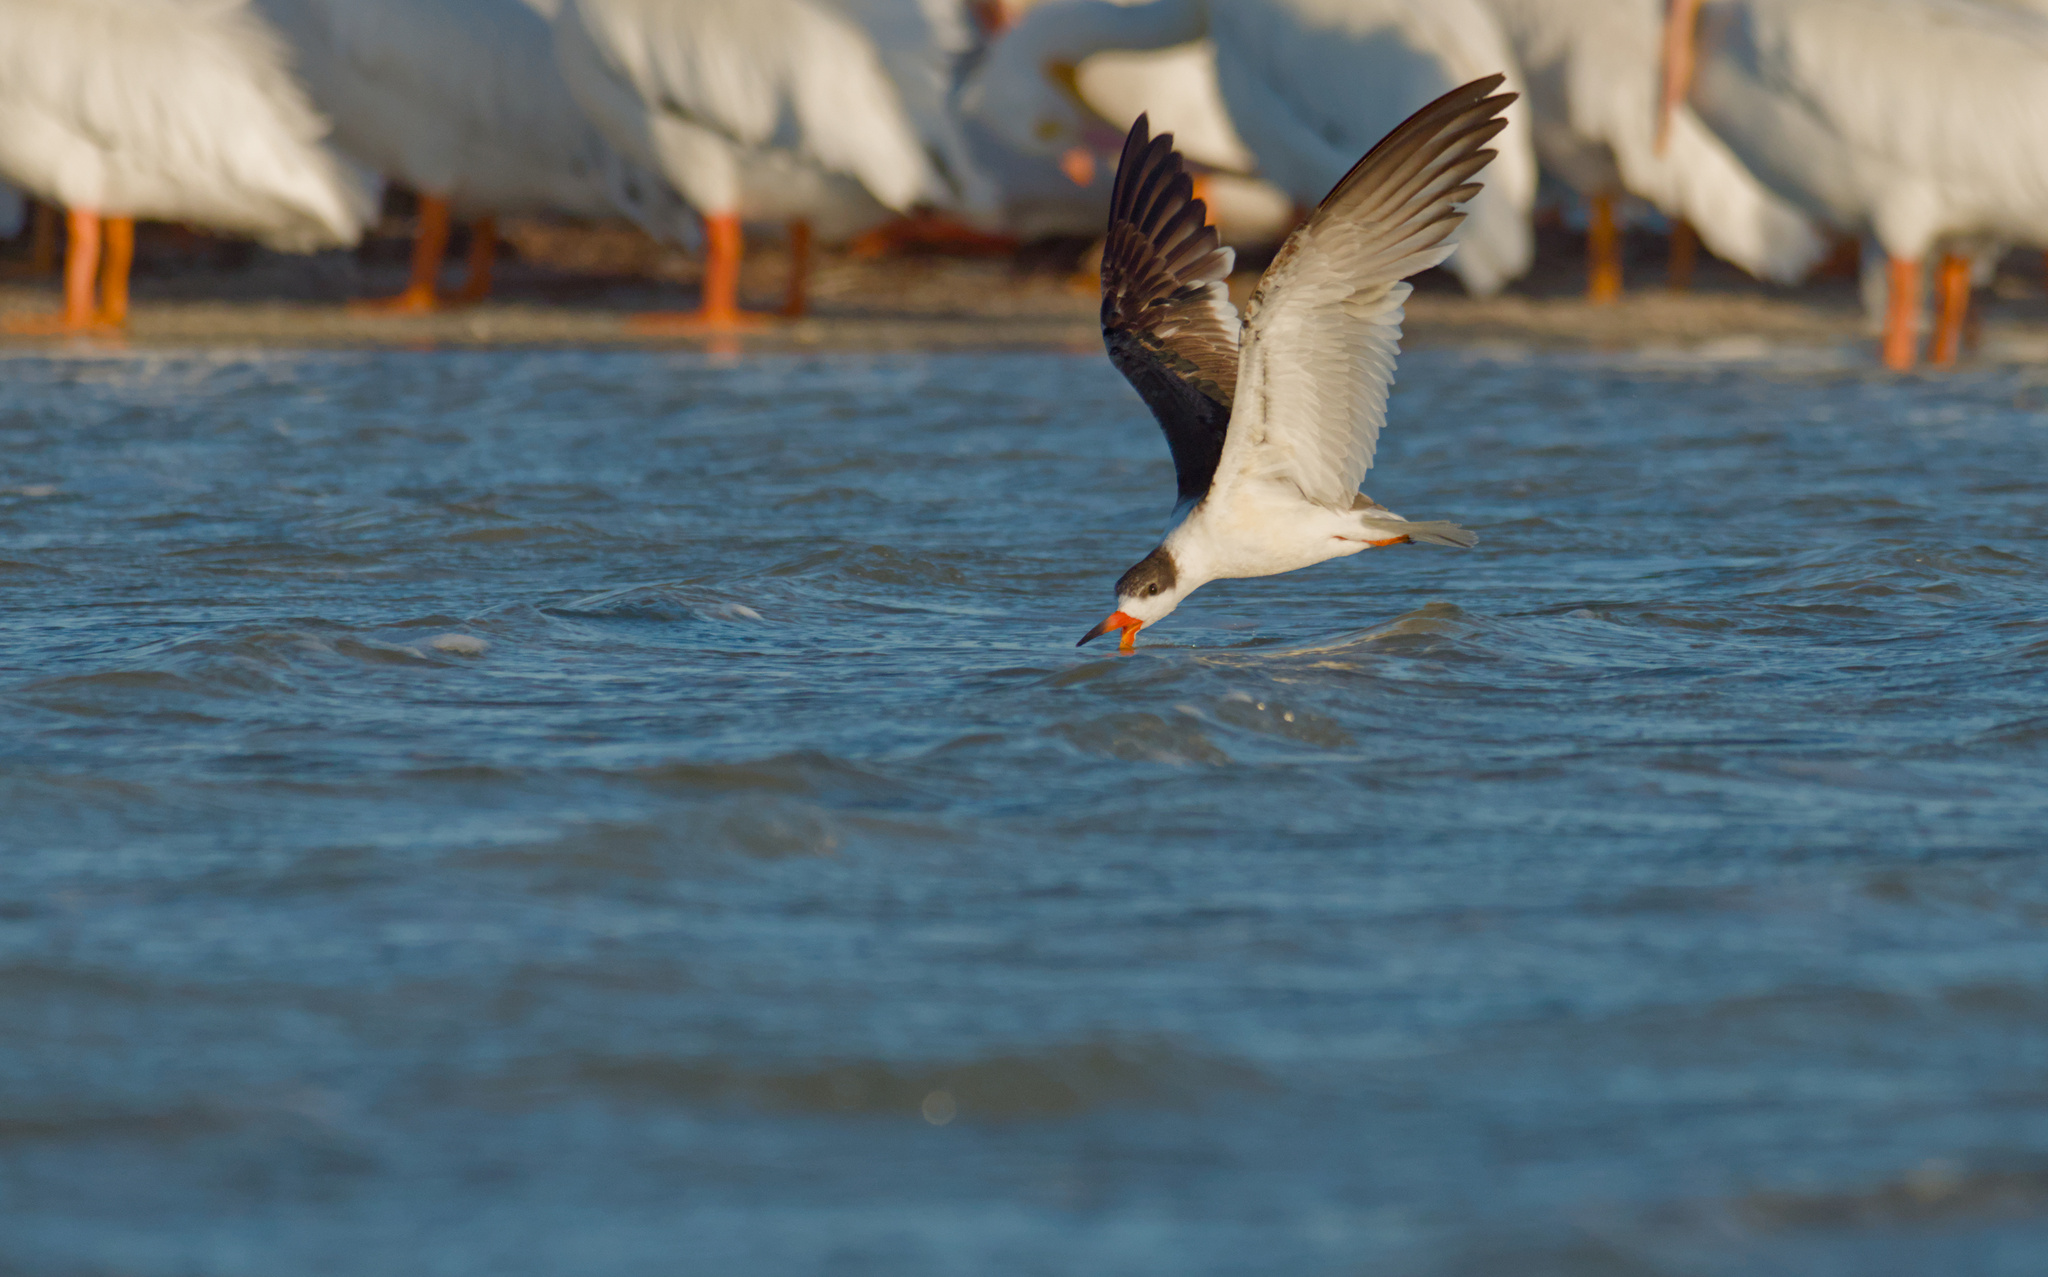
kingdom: Animalia
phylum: Chordata
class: Aves
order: Charadriiformes
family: Laridae
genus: Rynchops
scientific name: Rynchops niger
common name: Black skimmer
